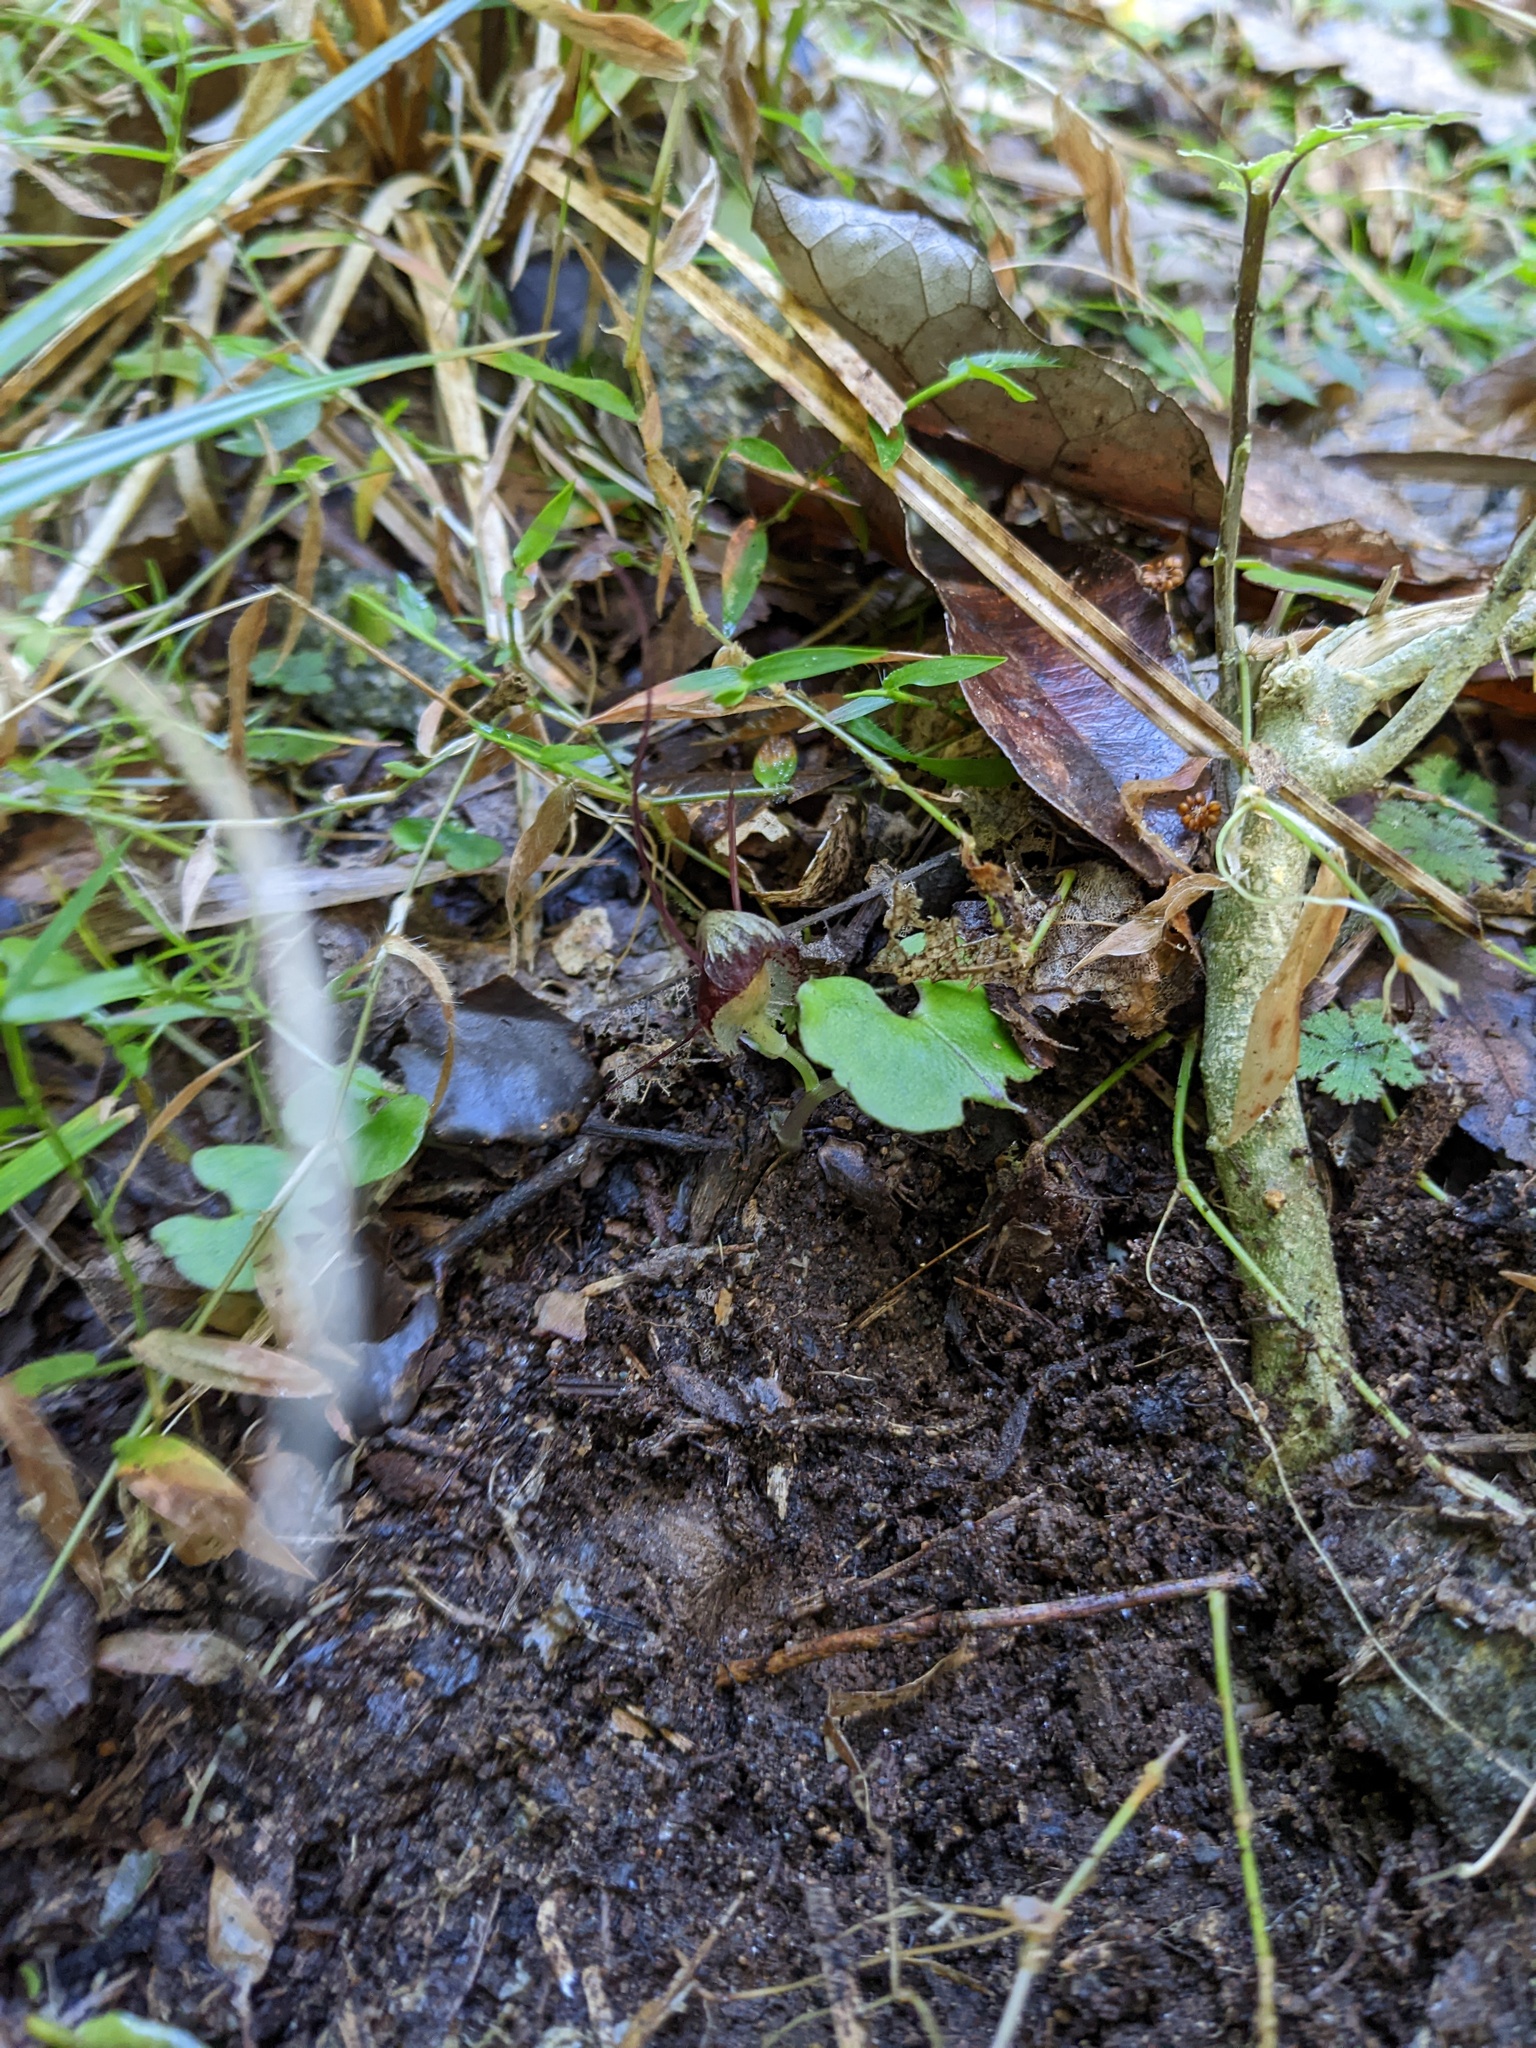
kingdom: Plantae
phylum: Tracheophyta
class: Liliopsida
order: Asparagales
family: Orchidaceae
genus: Corybas
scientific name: Corybas vitreus
